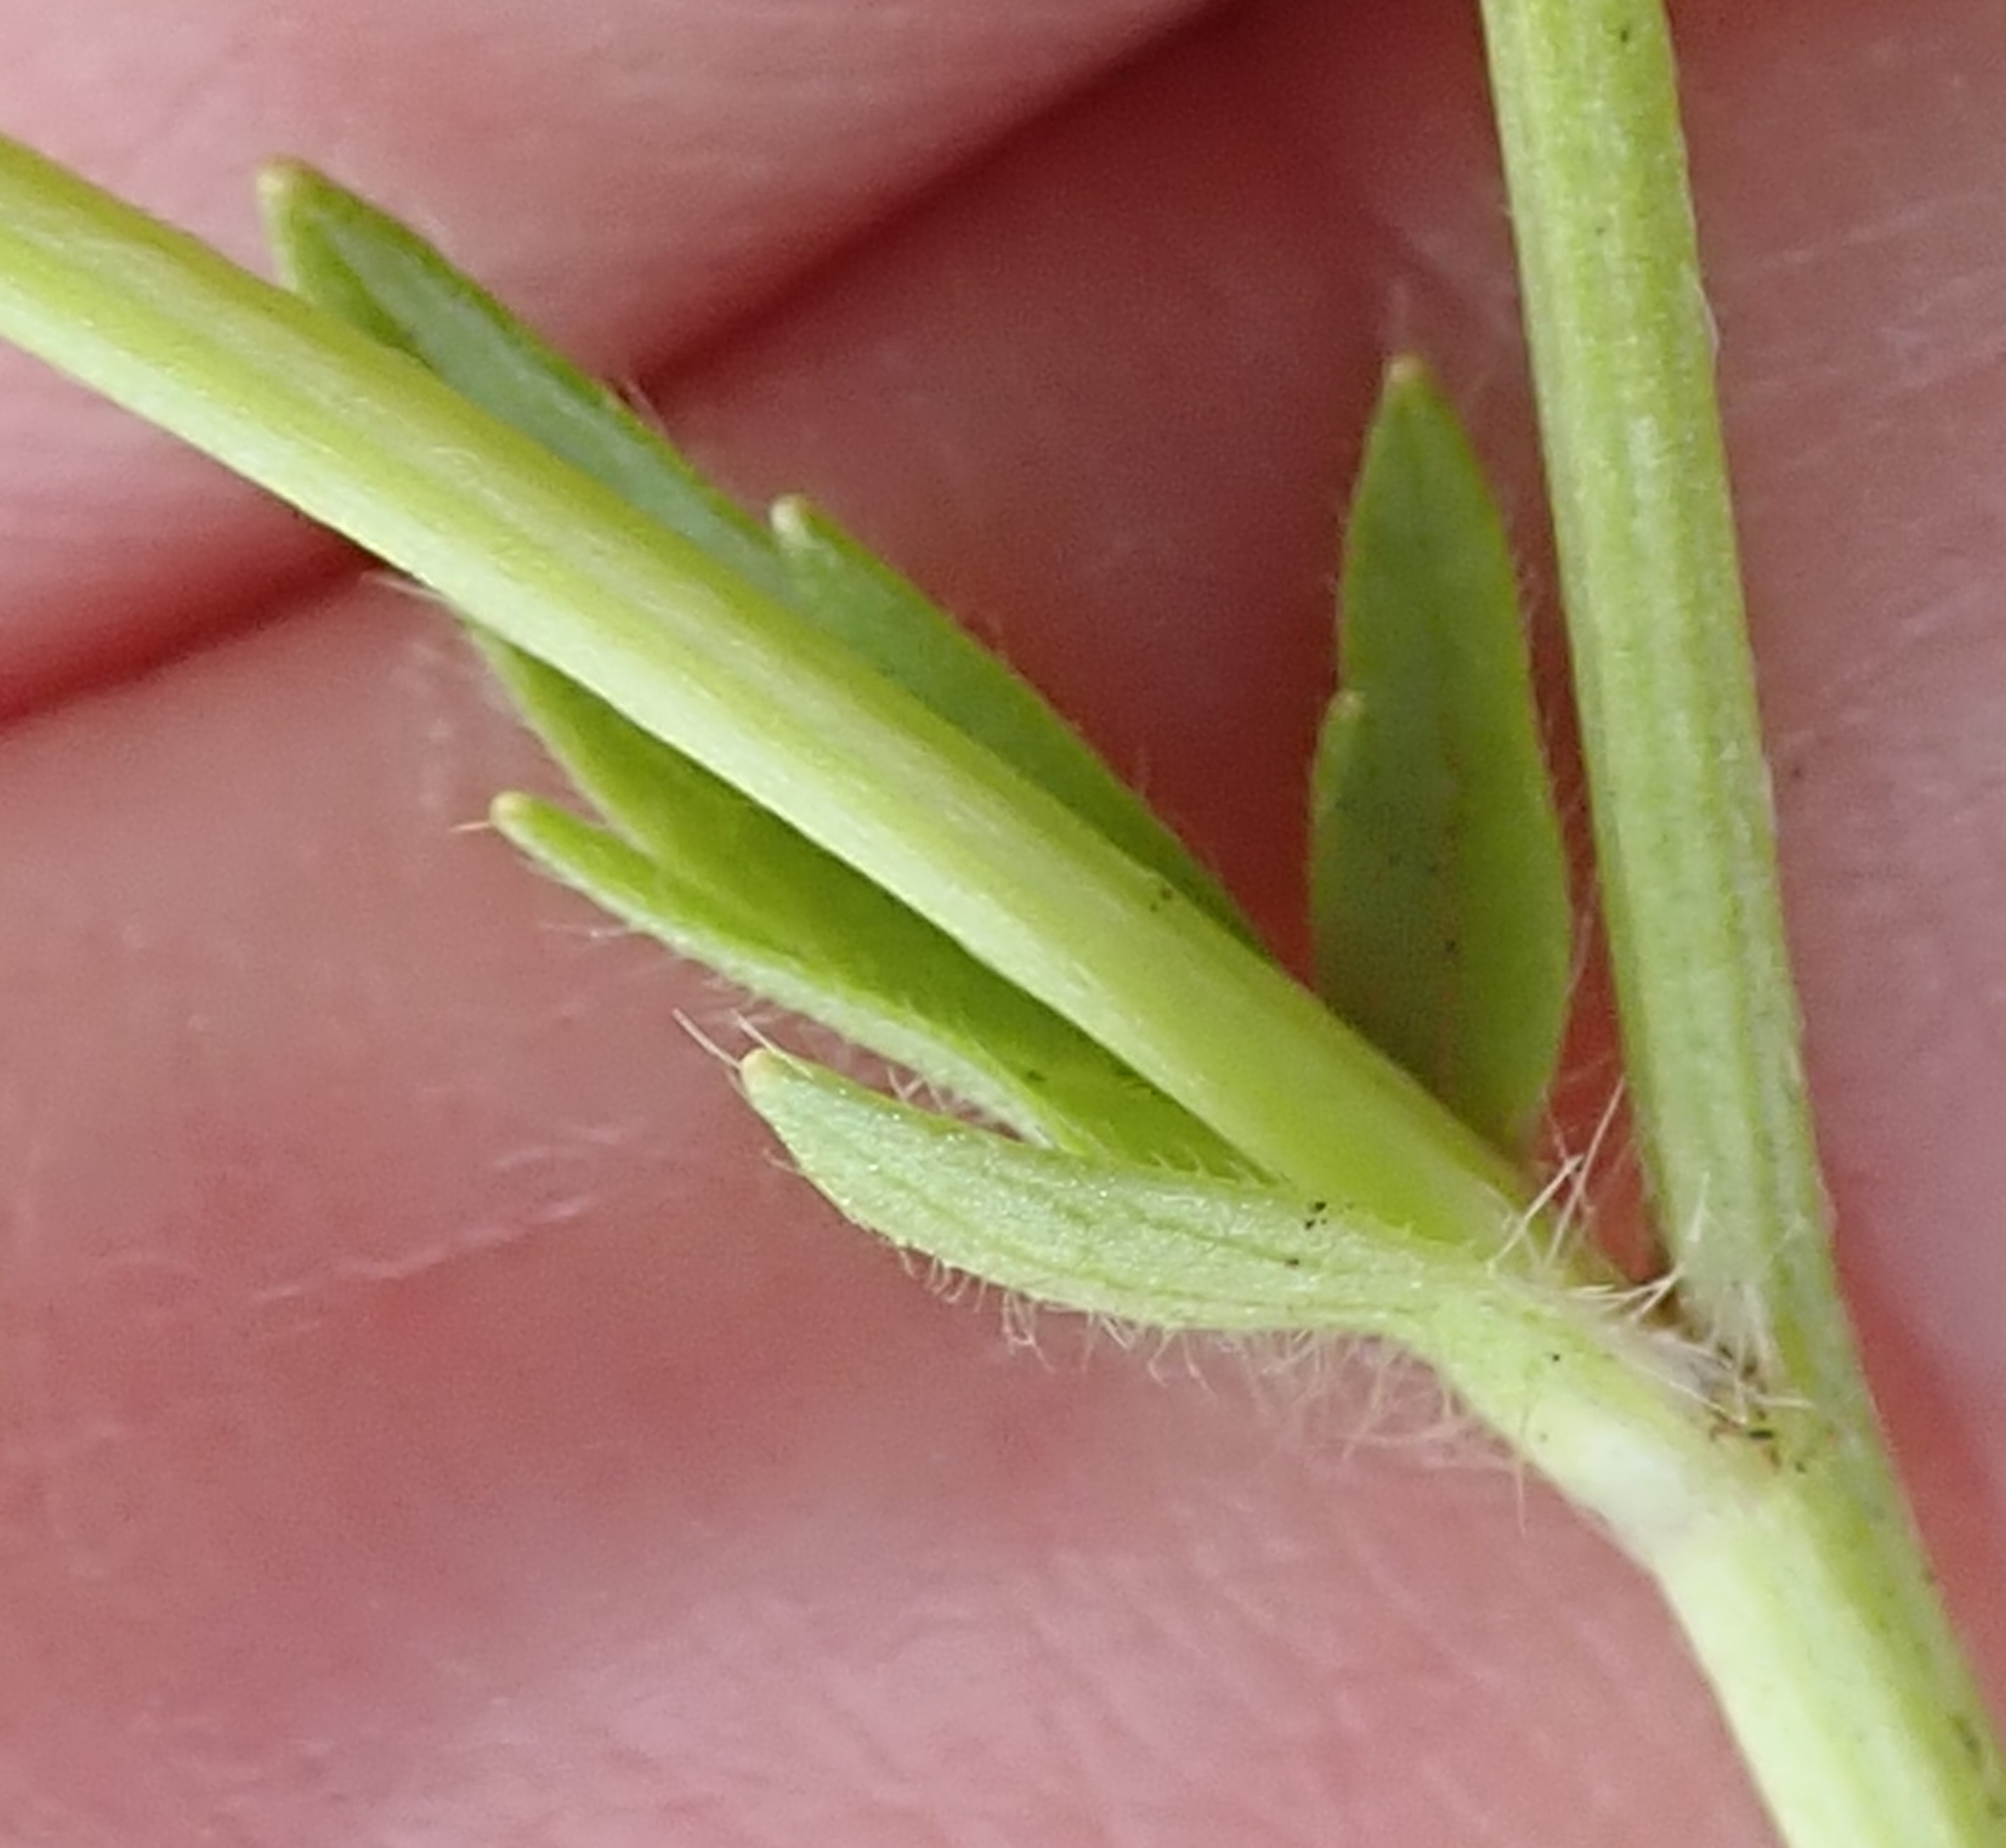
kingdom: Plantae
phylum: Tracheophyta
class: Magnoliopsida
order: Ranunculales
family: Ranunculaceae
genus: Ranunculus
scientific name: Ranunculus multifidus
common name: Wild buttercup
